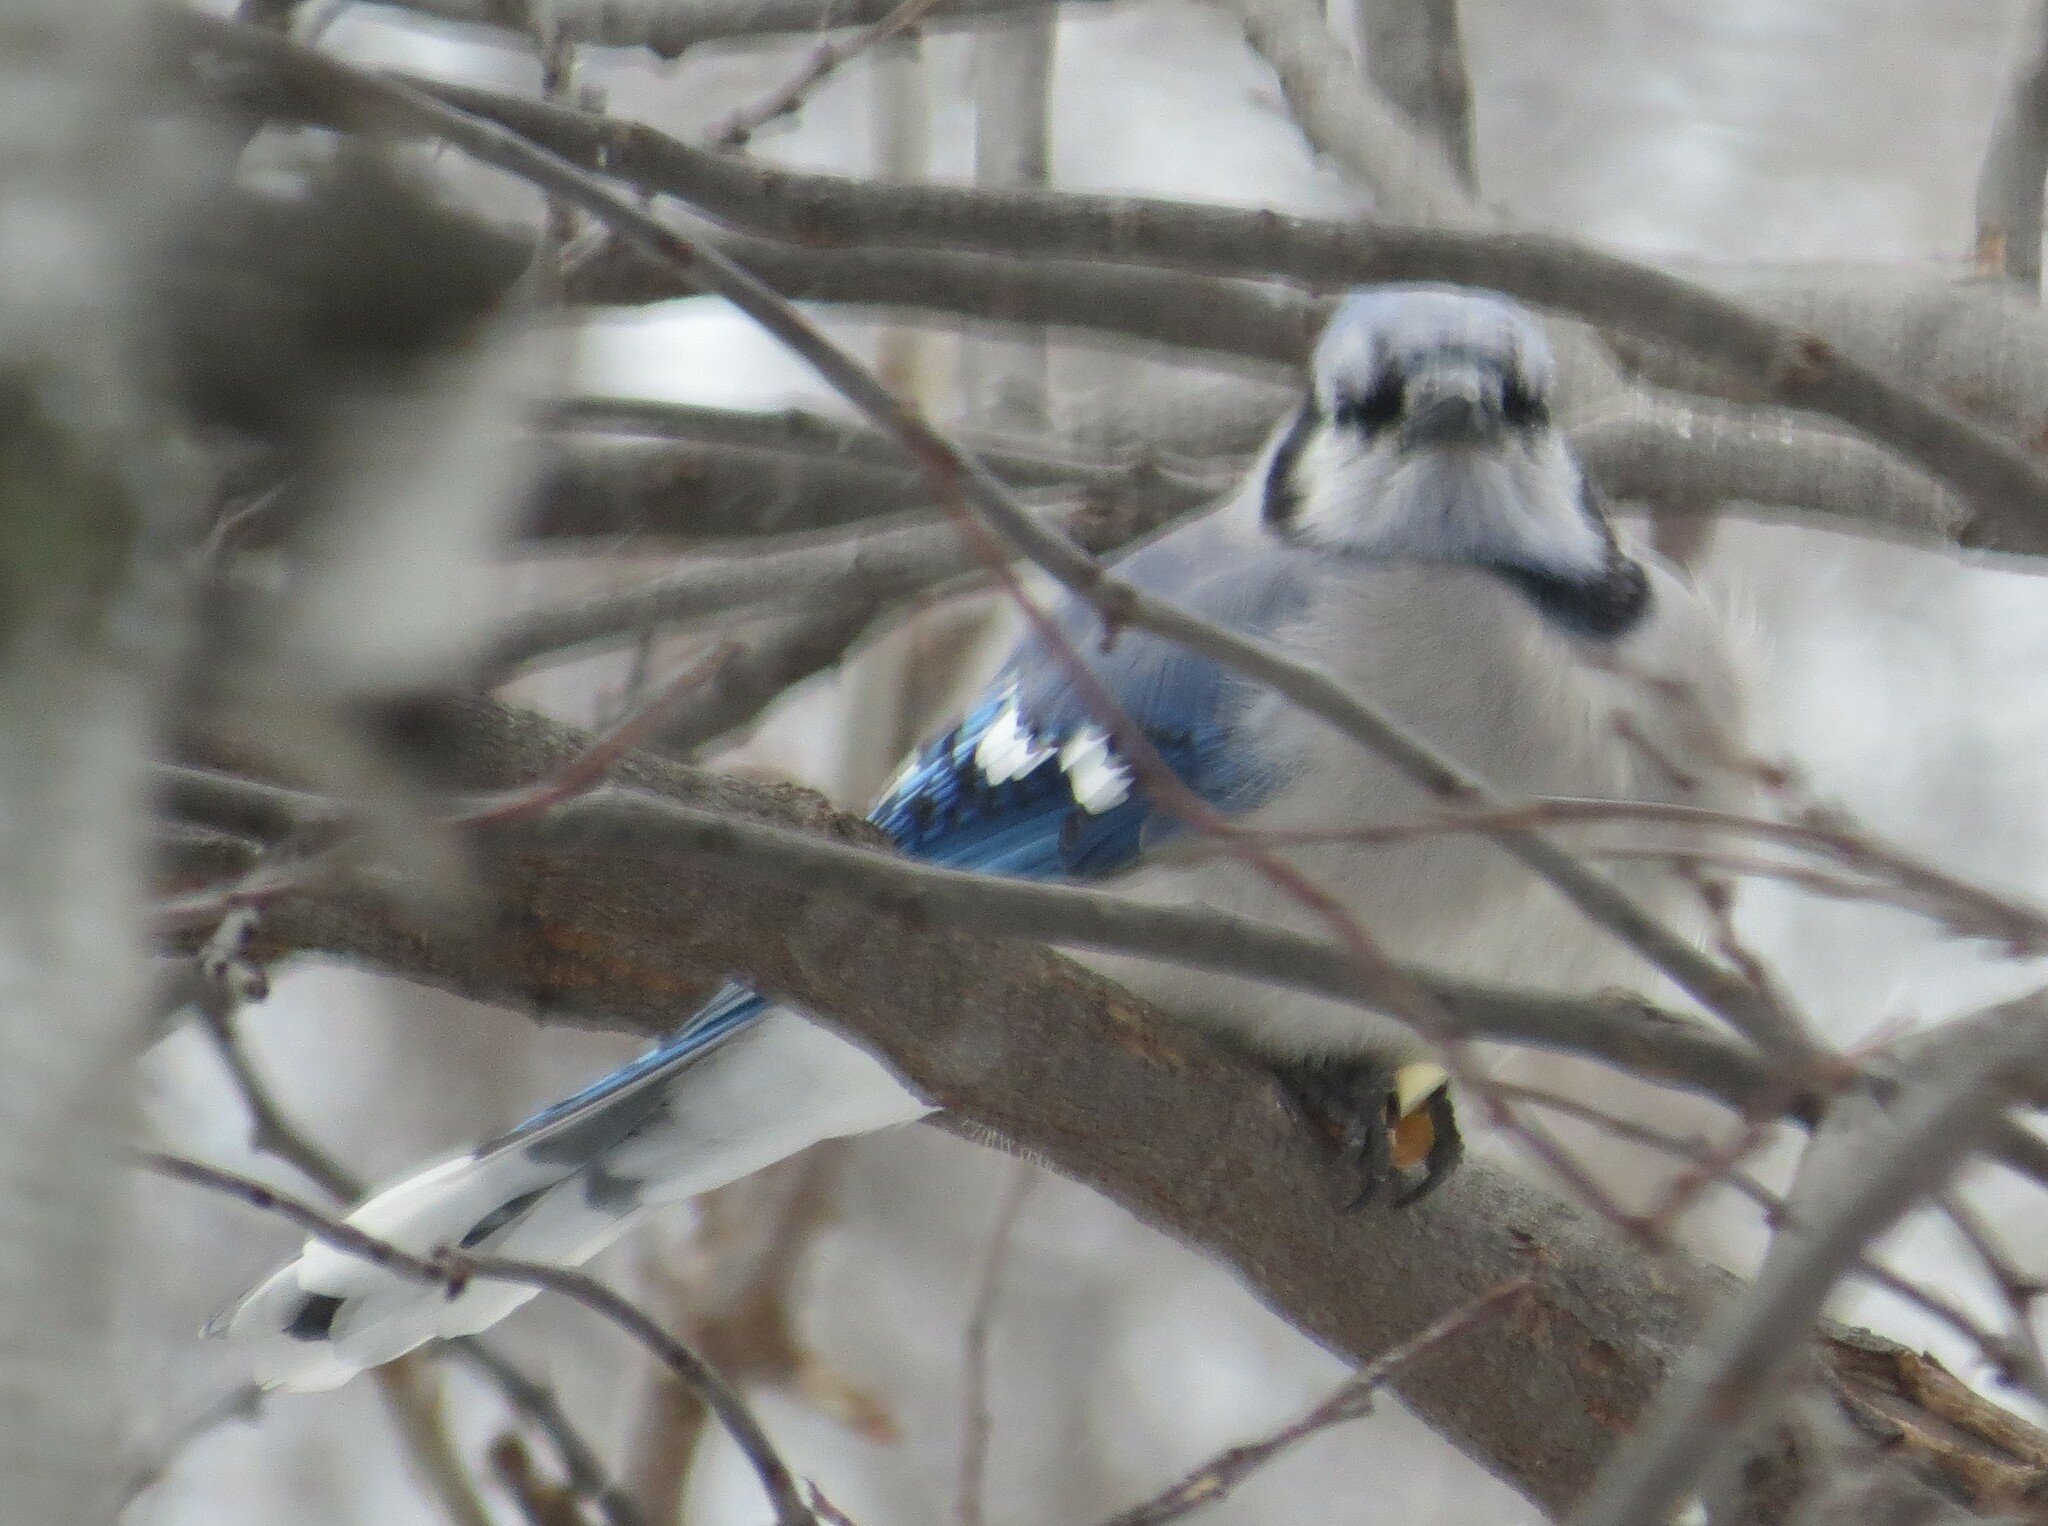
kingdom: Animalia
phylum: Chordata
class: Aves
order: Passeriformes
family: Corvidae
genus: Cyanocitta
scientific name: Cyanocitta cristata
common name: Blue jay
